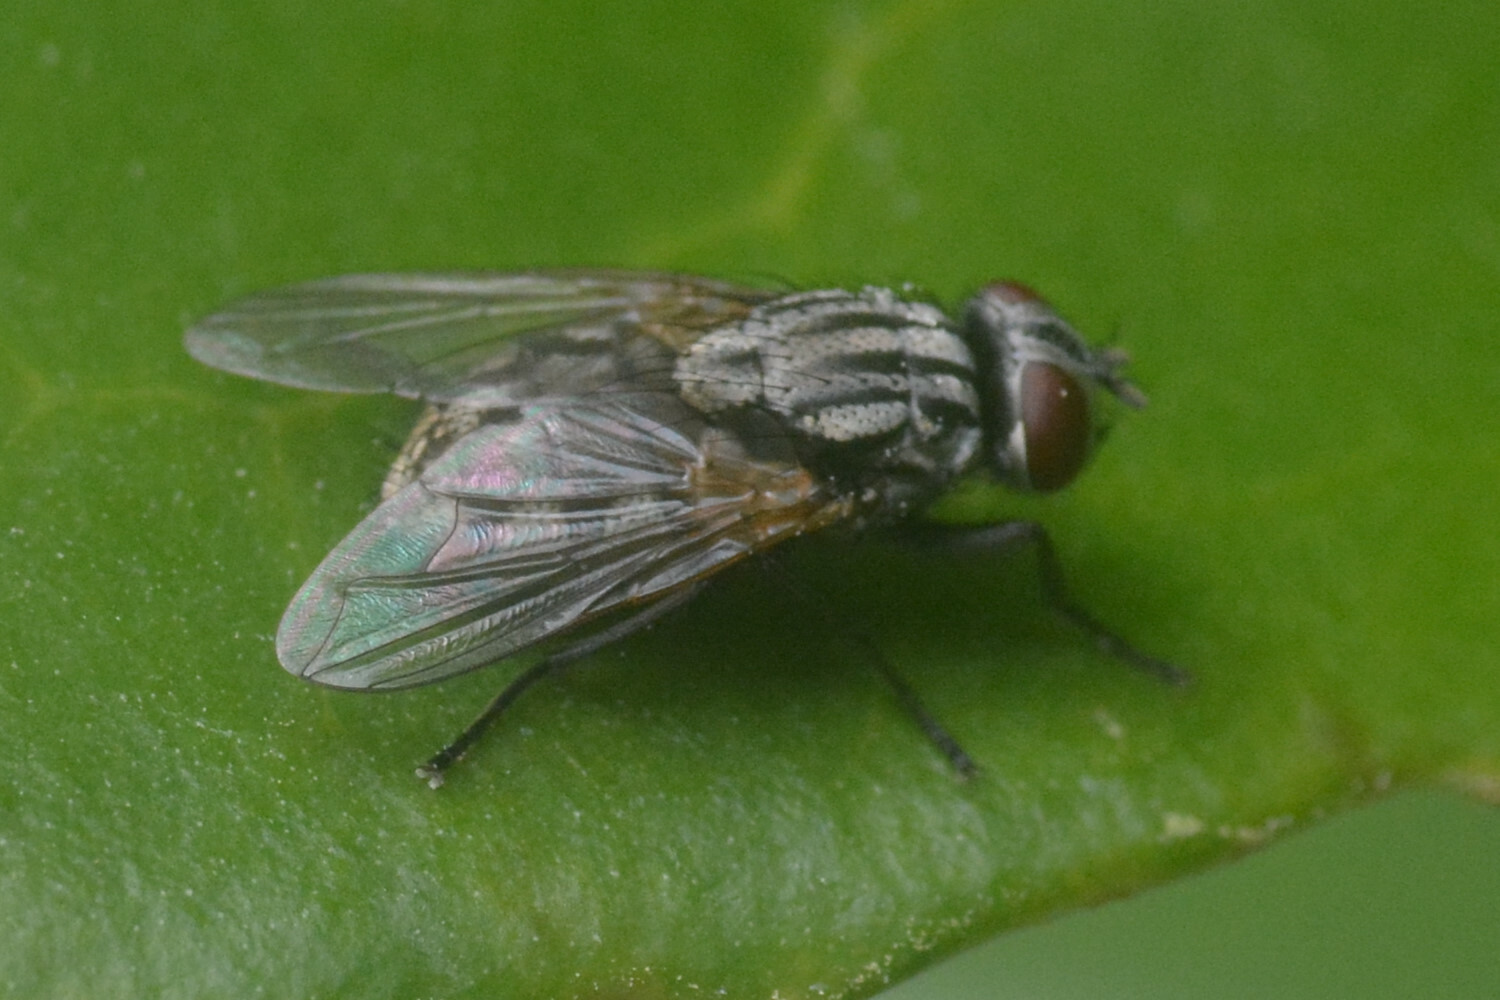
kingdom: Animalia
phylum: Arthropoda
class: Insecta
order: Diptera
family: Muscidae
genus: Musca
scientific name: Musca autumnalis
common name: Face fly
